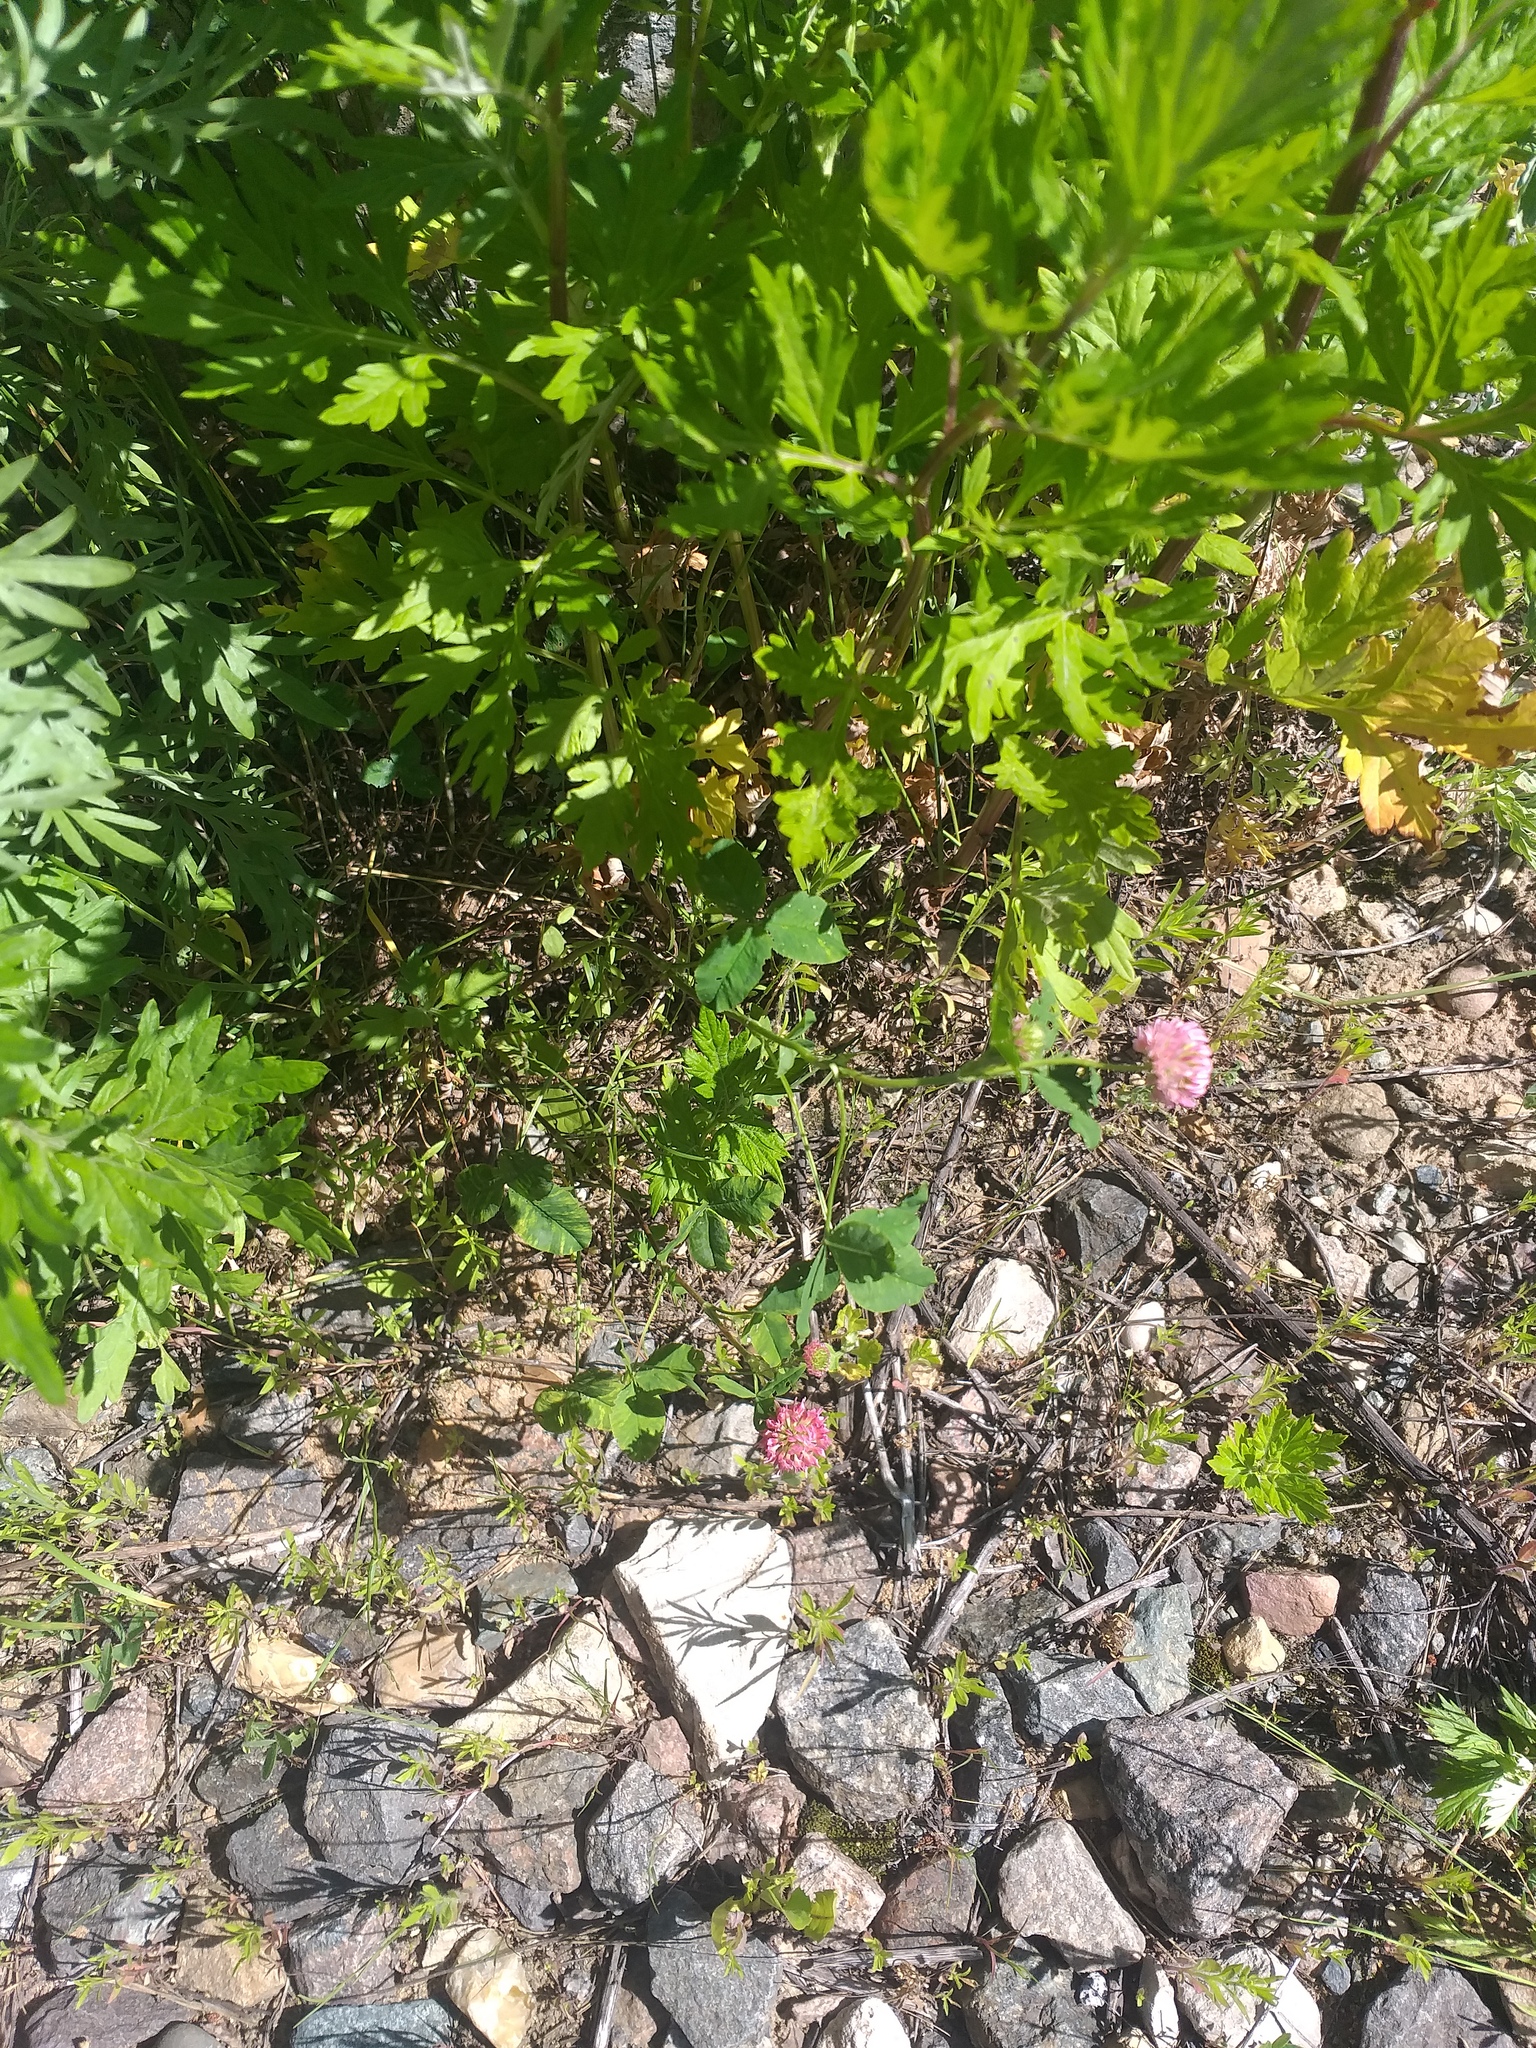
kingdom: Plantae
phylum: Tracheophyta
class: Magnoliopsida
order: Fabales
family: Fabaceae
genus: Trifolium
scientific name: Trifolium hybridum
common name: Alsike clover
